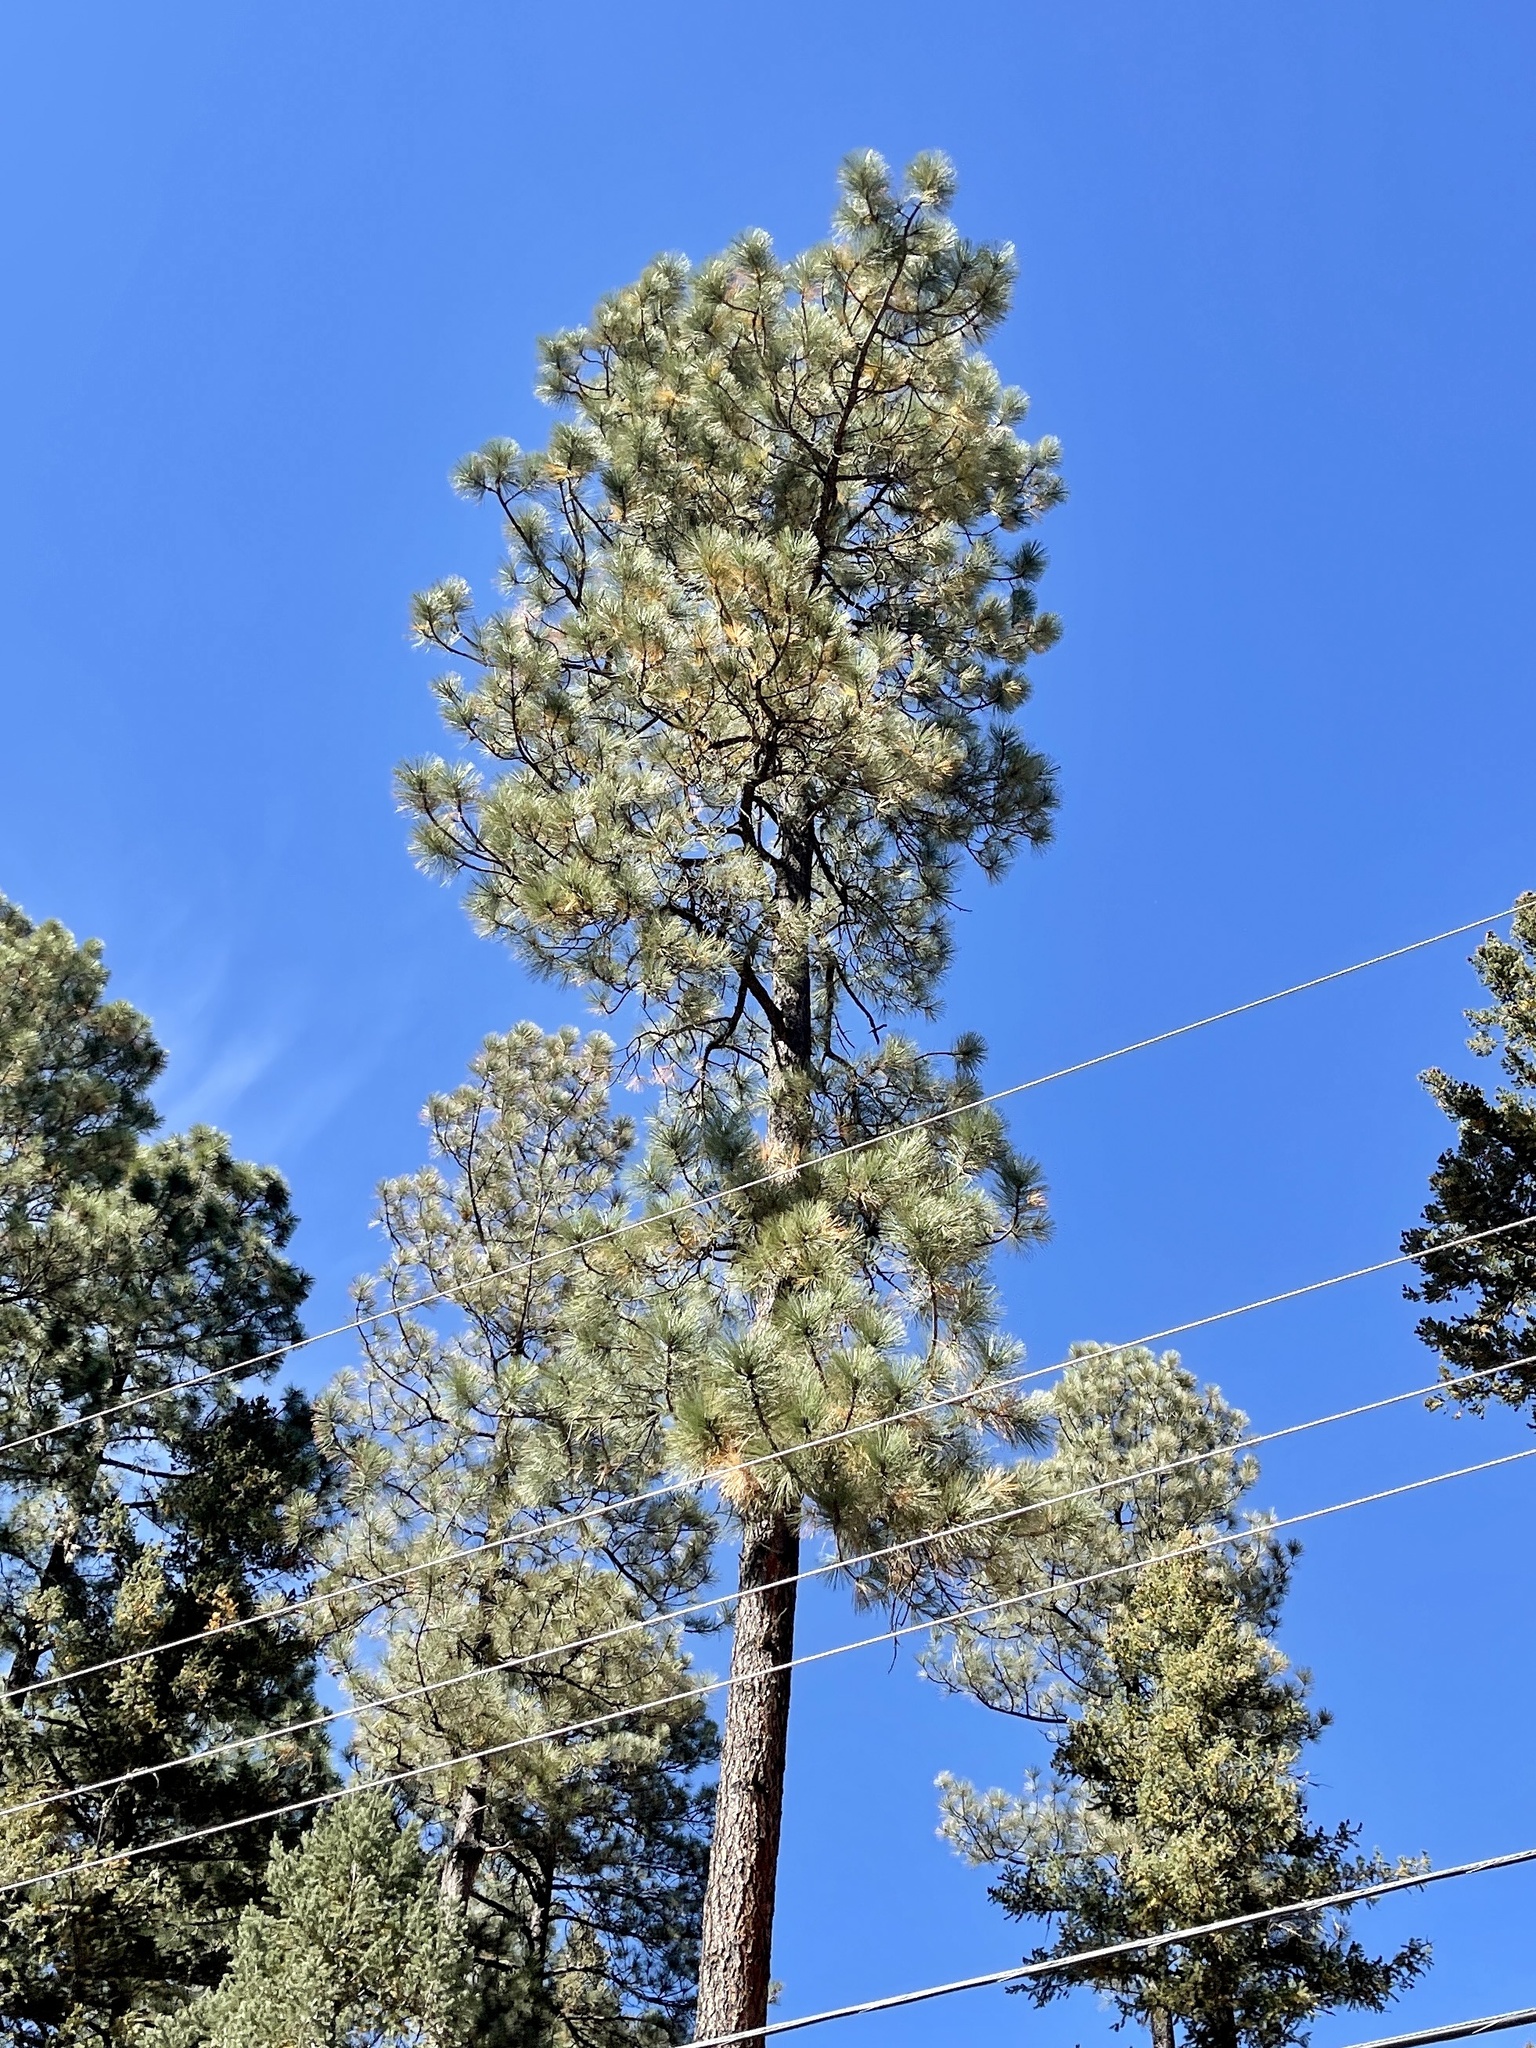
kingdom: Plantae
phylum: Tracheophyta
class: Pinopsida
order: Pinales
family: Pinaceae
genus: Pinus
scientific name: Pinus ponderosa
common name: Western yellow-pine
